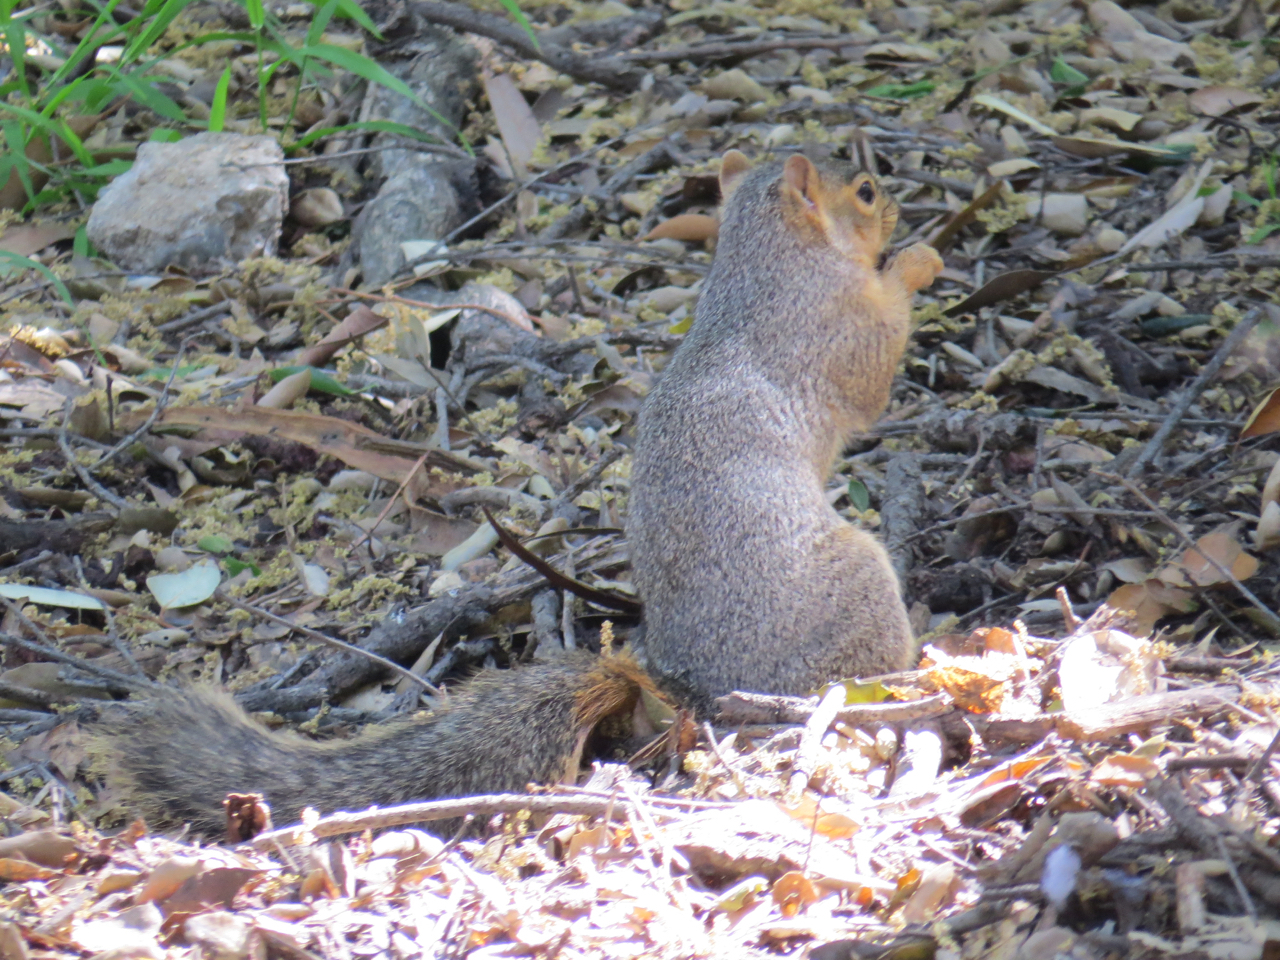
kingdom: Animalia
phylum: Chordata
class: Mammalia
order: Rodentia
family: Sciuridae
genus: Sciurus
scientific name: Sciurus niger
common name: Fox squirrel
